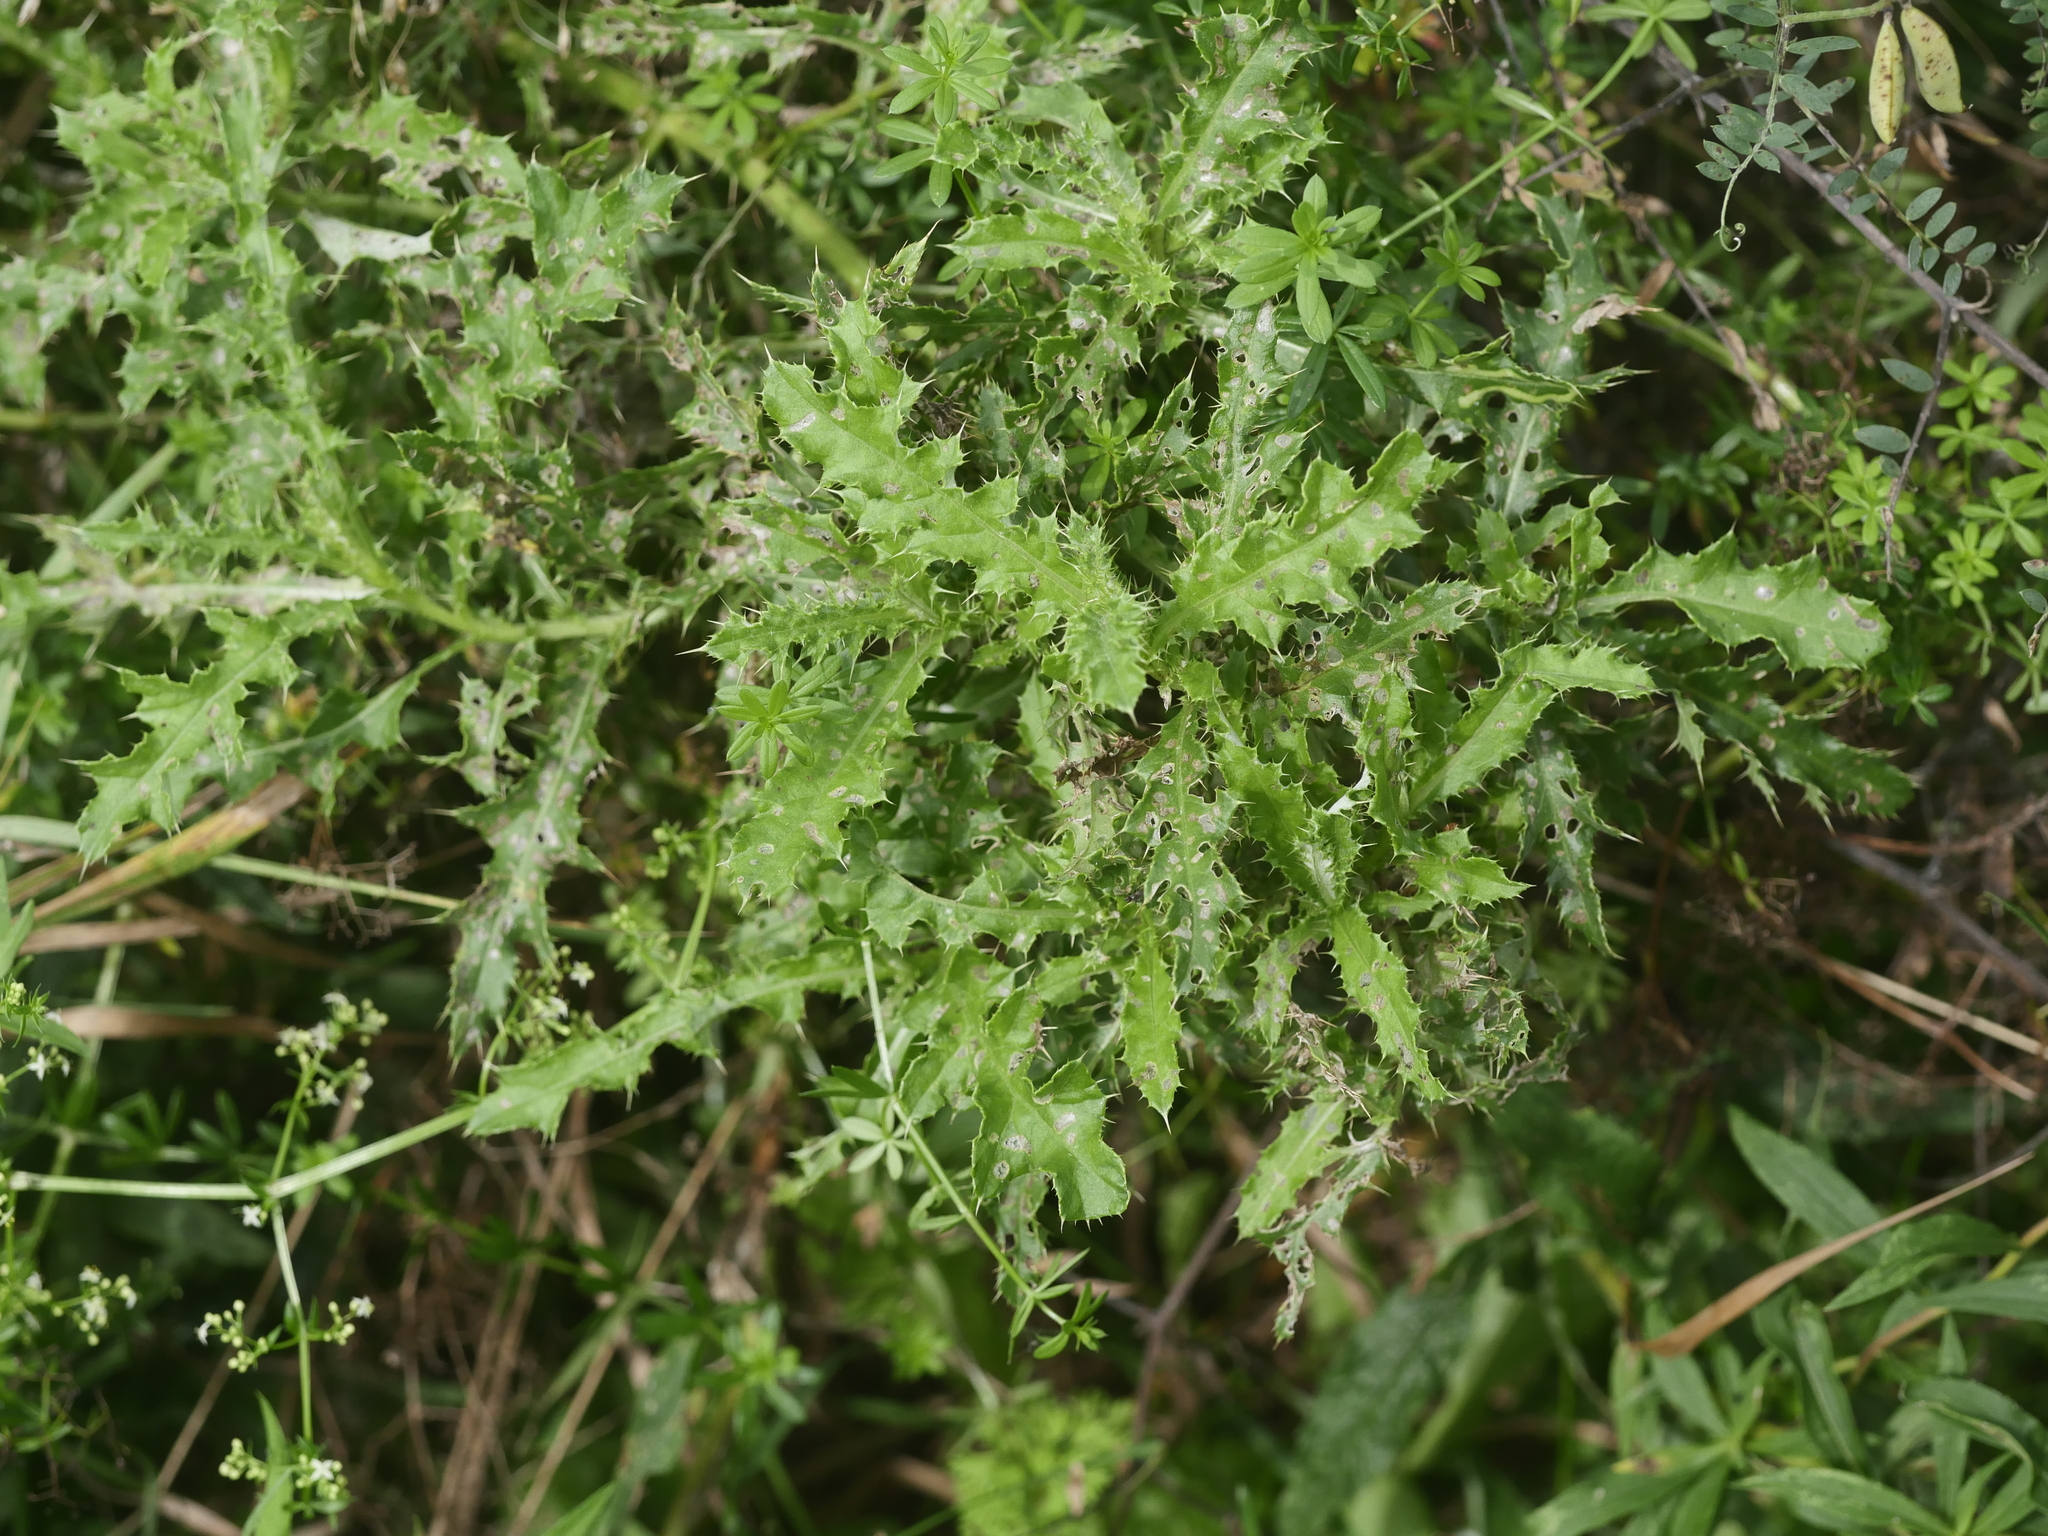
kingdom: Plantae
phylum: Tracheophyta
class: Magnoliopsida
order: Asterales
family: Asteraceae
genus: Cirsium
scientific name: Cirsium arvense
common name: Creeping thistle
